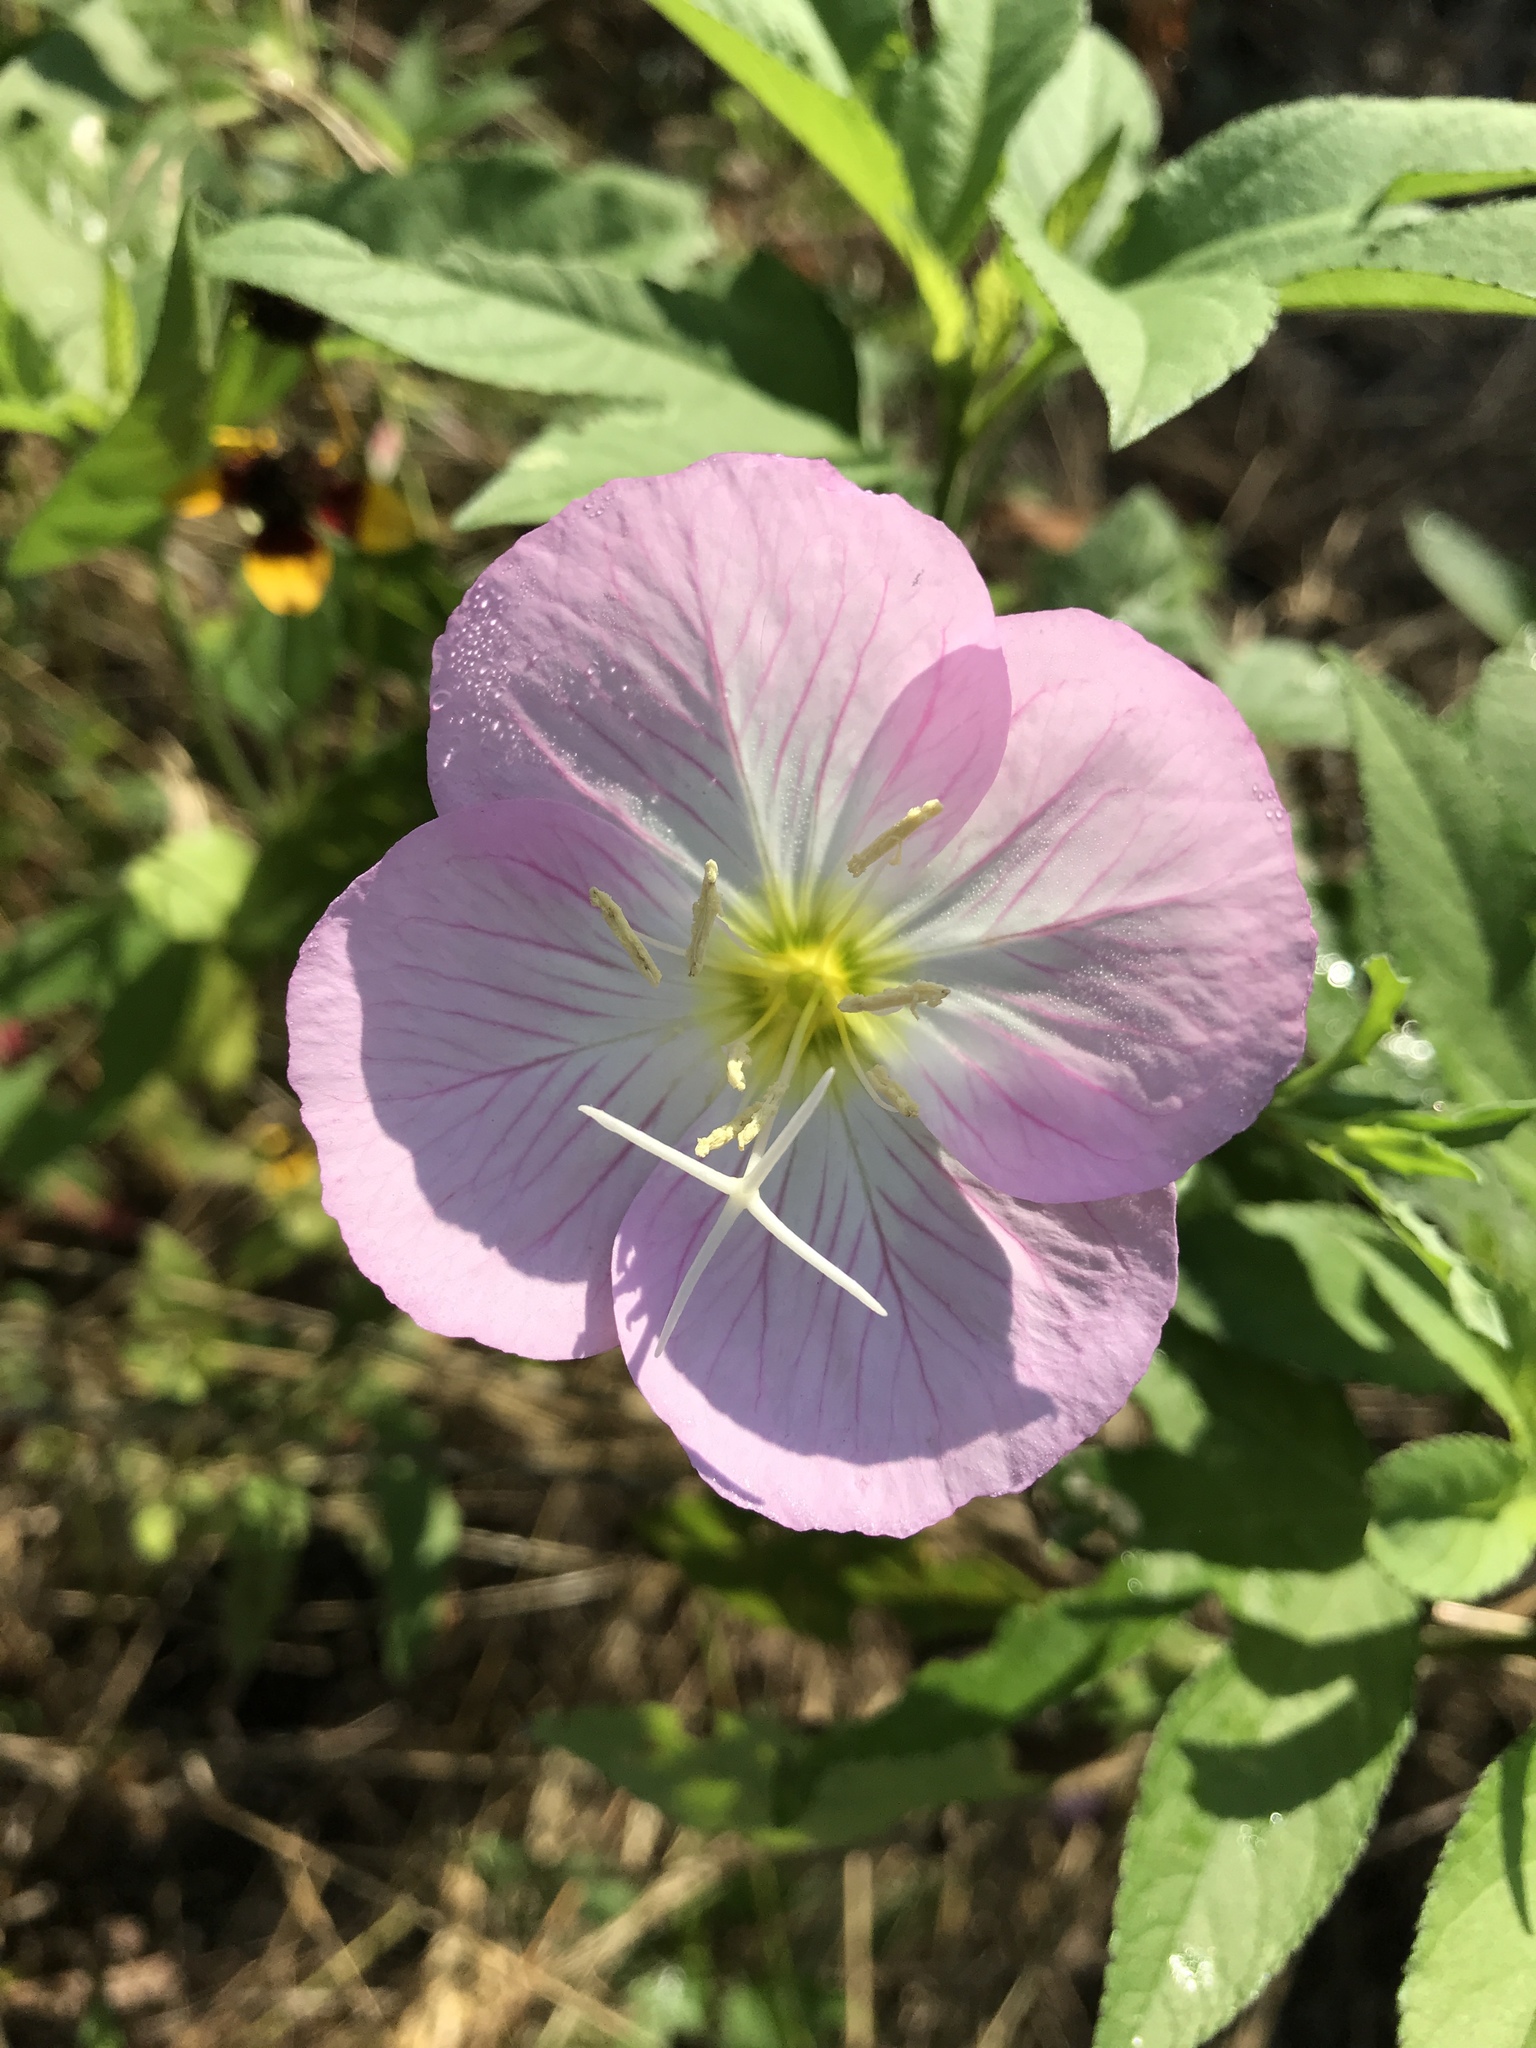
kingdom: Plantae
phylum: Tracheophyta
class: Magnoliopsida
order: Myrtales
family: Onagraceae
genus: Oenothera
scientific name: Oenothera speciosa
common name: White evening-primrose
